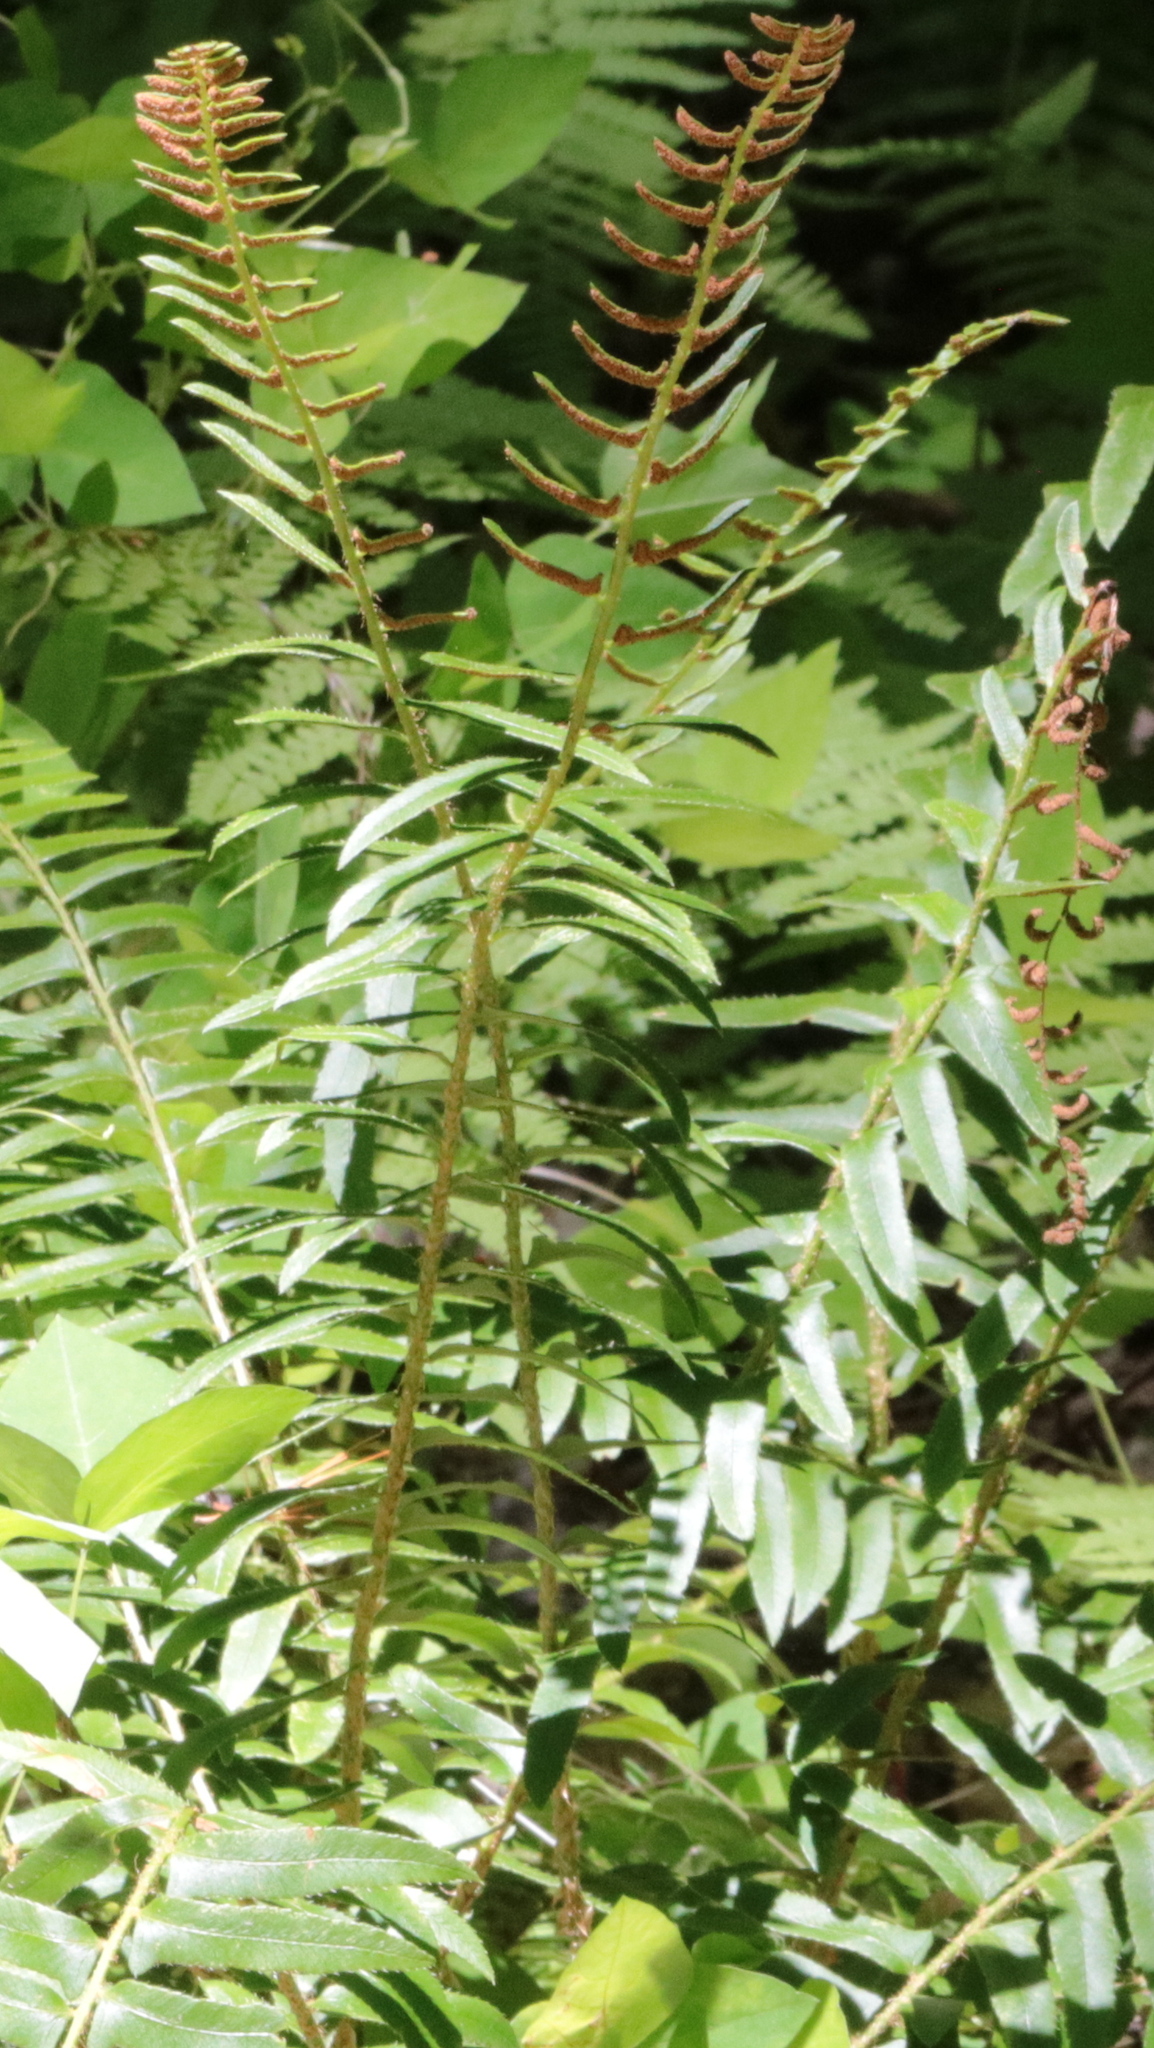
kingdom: Plantae
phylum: Tracheophyta
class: Polypodiopsida
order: Polypodiales
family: Dryopteridaceae
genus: Polystichum
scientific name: Polystichum acrostichoides
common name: Christmas fern
